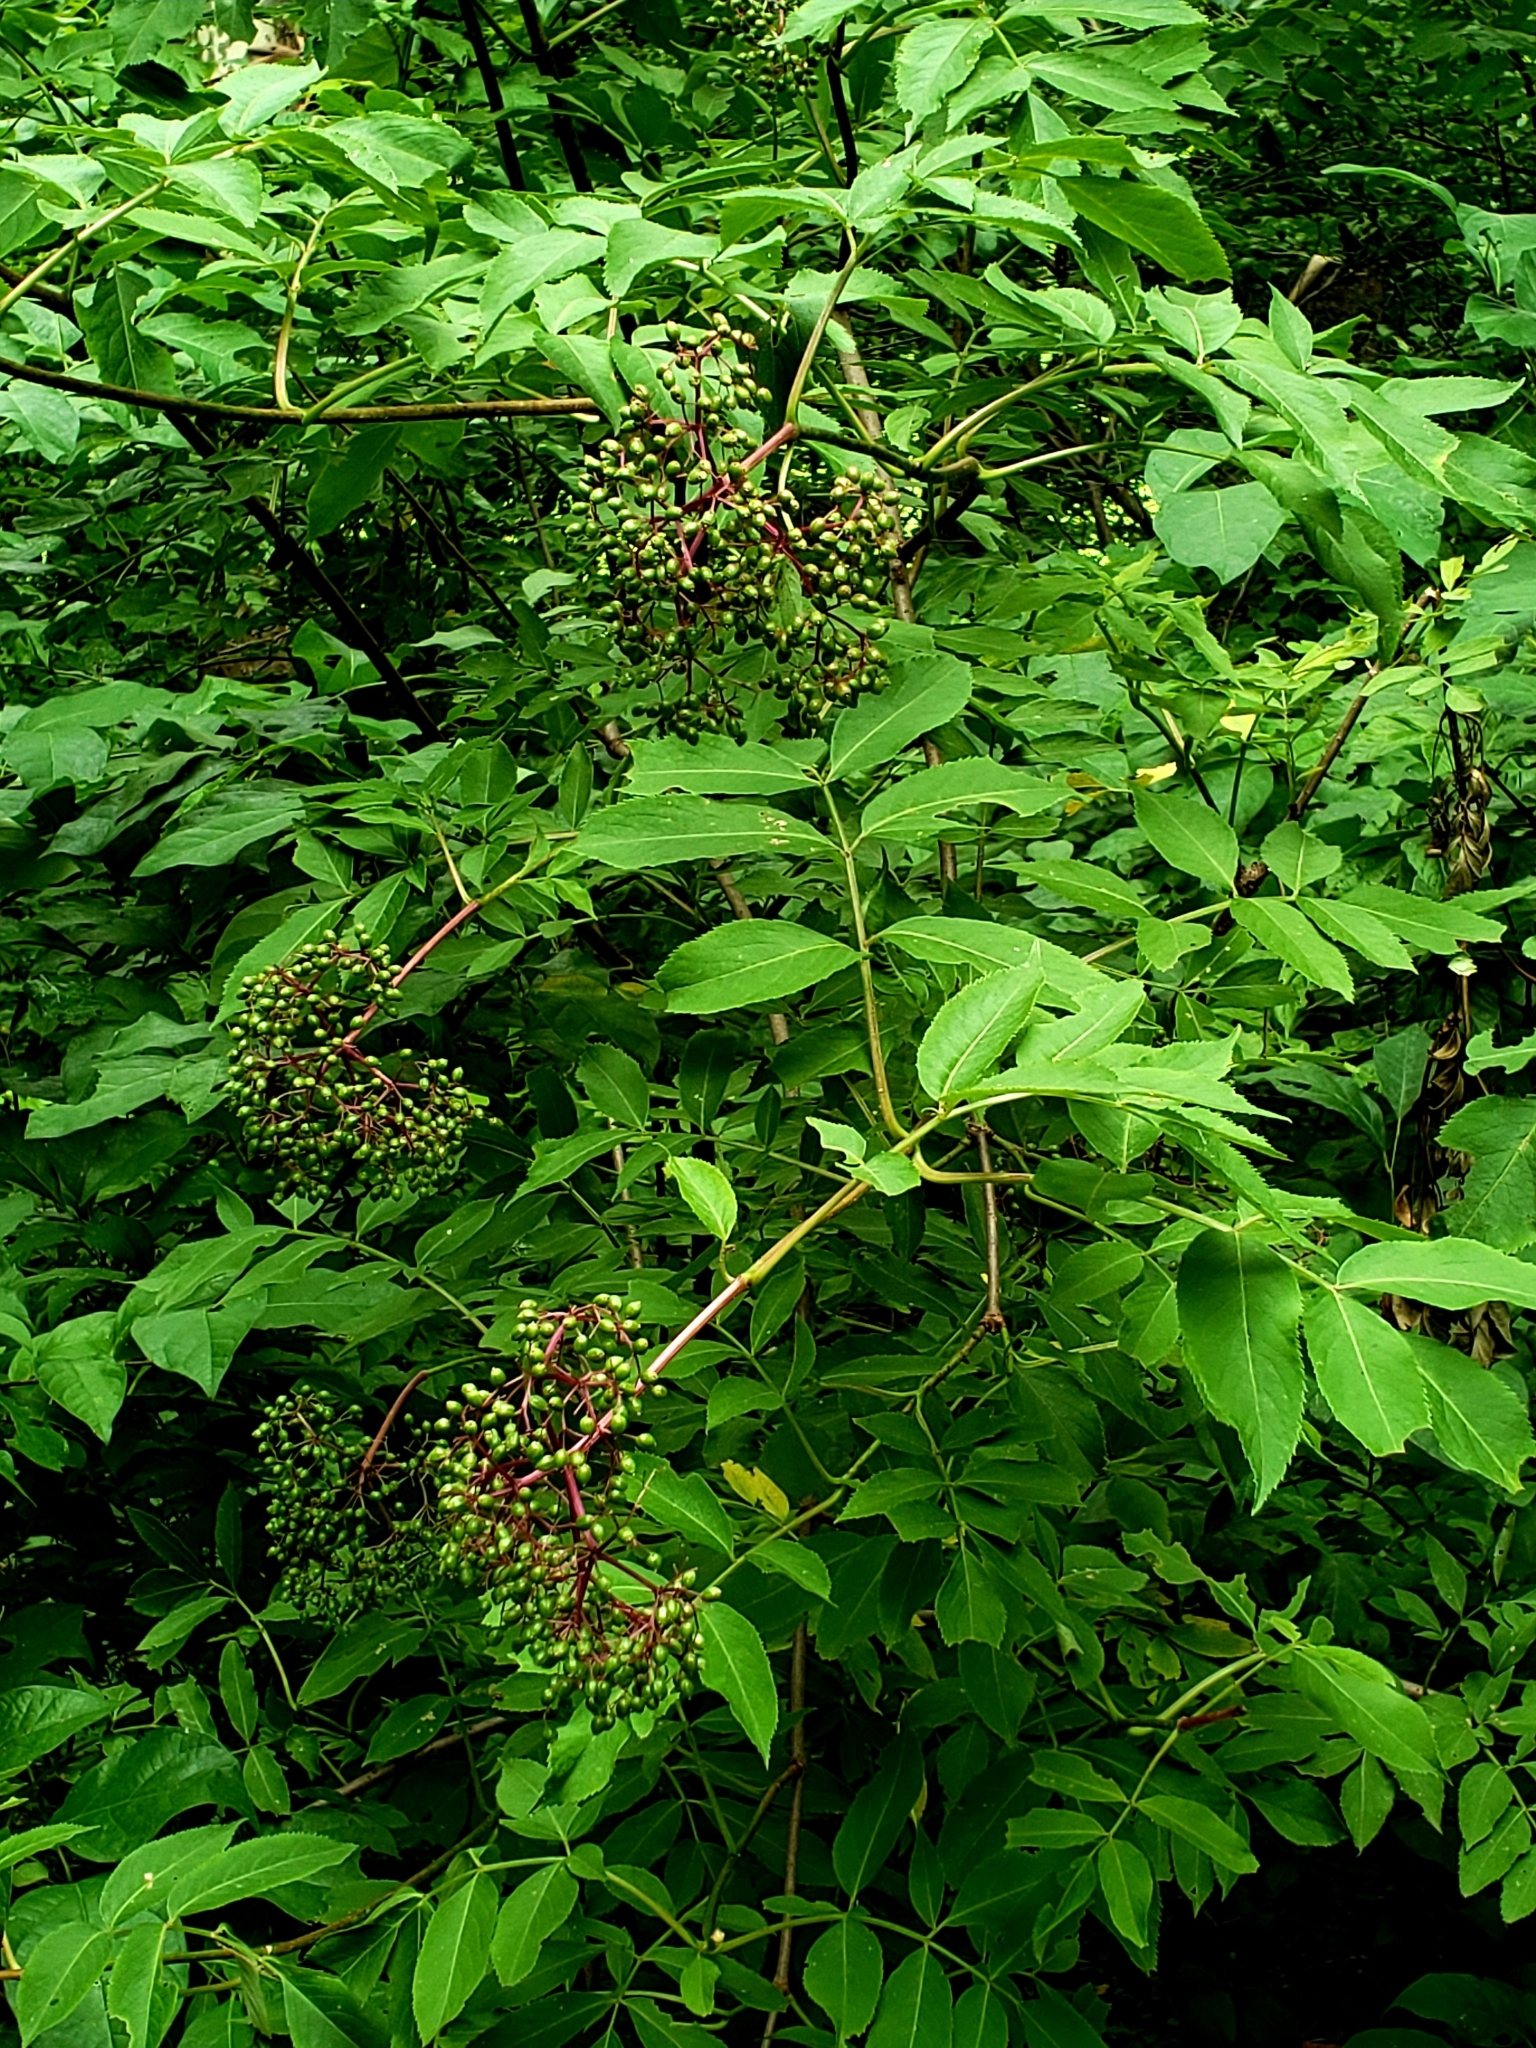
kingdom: Plantae
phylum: Tracheophyta
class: Magnoliopsida
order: Dipsacales
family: Viburnaceae
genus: Sambucus
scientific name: Sambucus canadensis
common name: American elder
